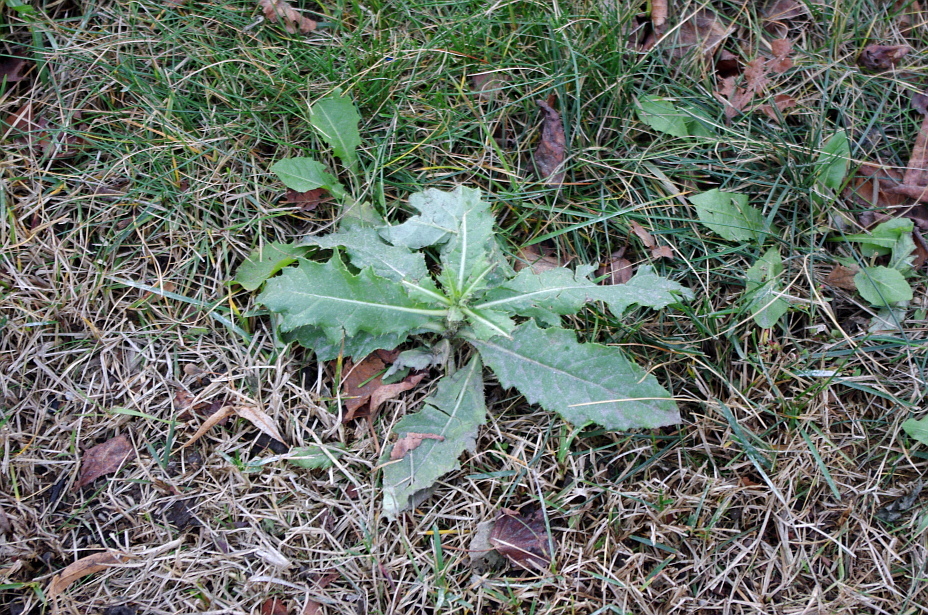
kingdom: Plantae
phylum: Tracheophyta
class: Magnoliopsida
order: Asterales
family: Asteraceae
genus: Cirsium
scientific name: Cirsium arvense
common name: Creeping thistle
